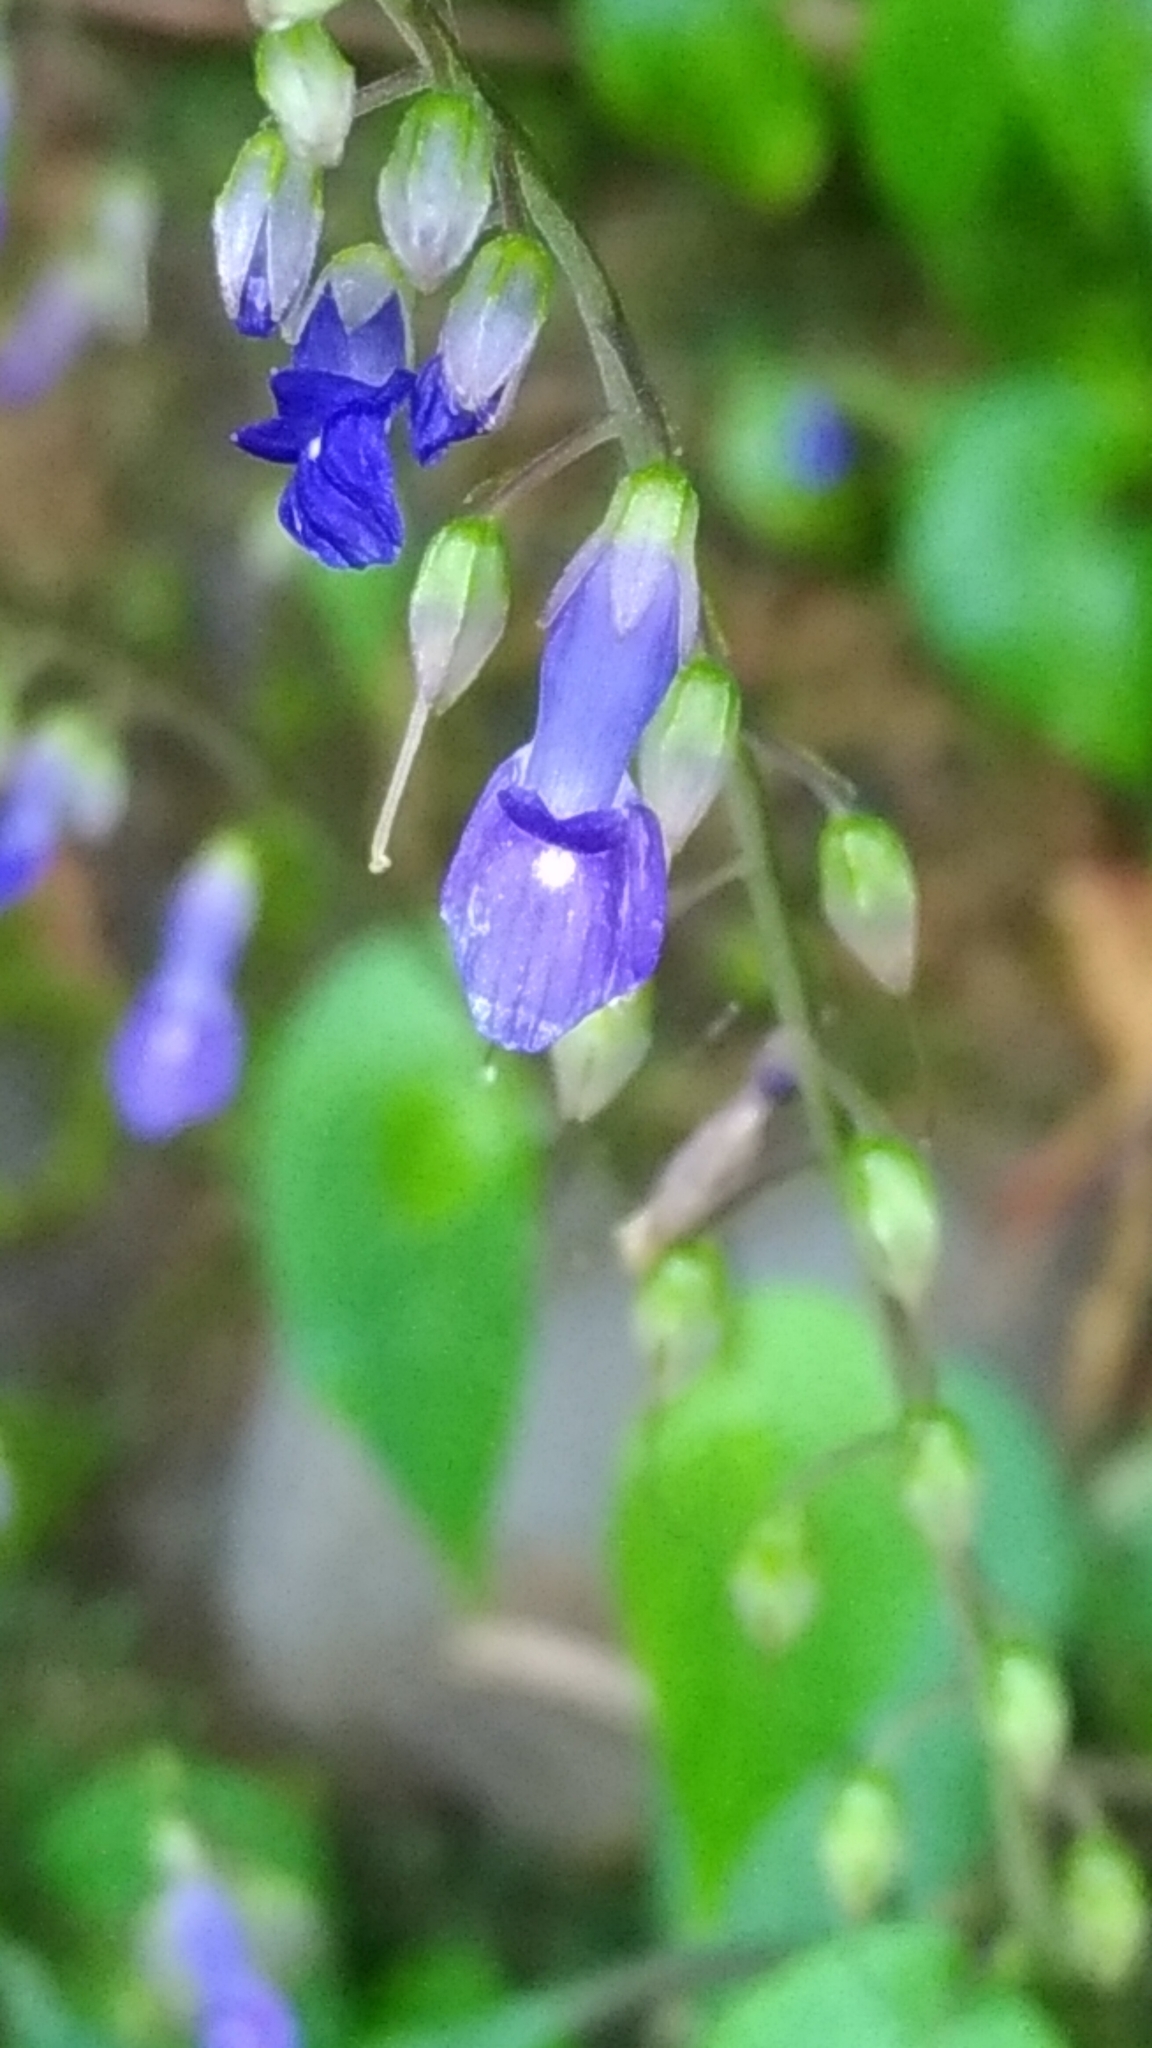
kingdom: Plantae
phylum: Tracheophyta
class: Magnoliopsida
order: Lamiales
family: Gesneriaceae
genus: Rhynchoglossum
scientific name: Rhynchoglossum obliquum
